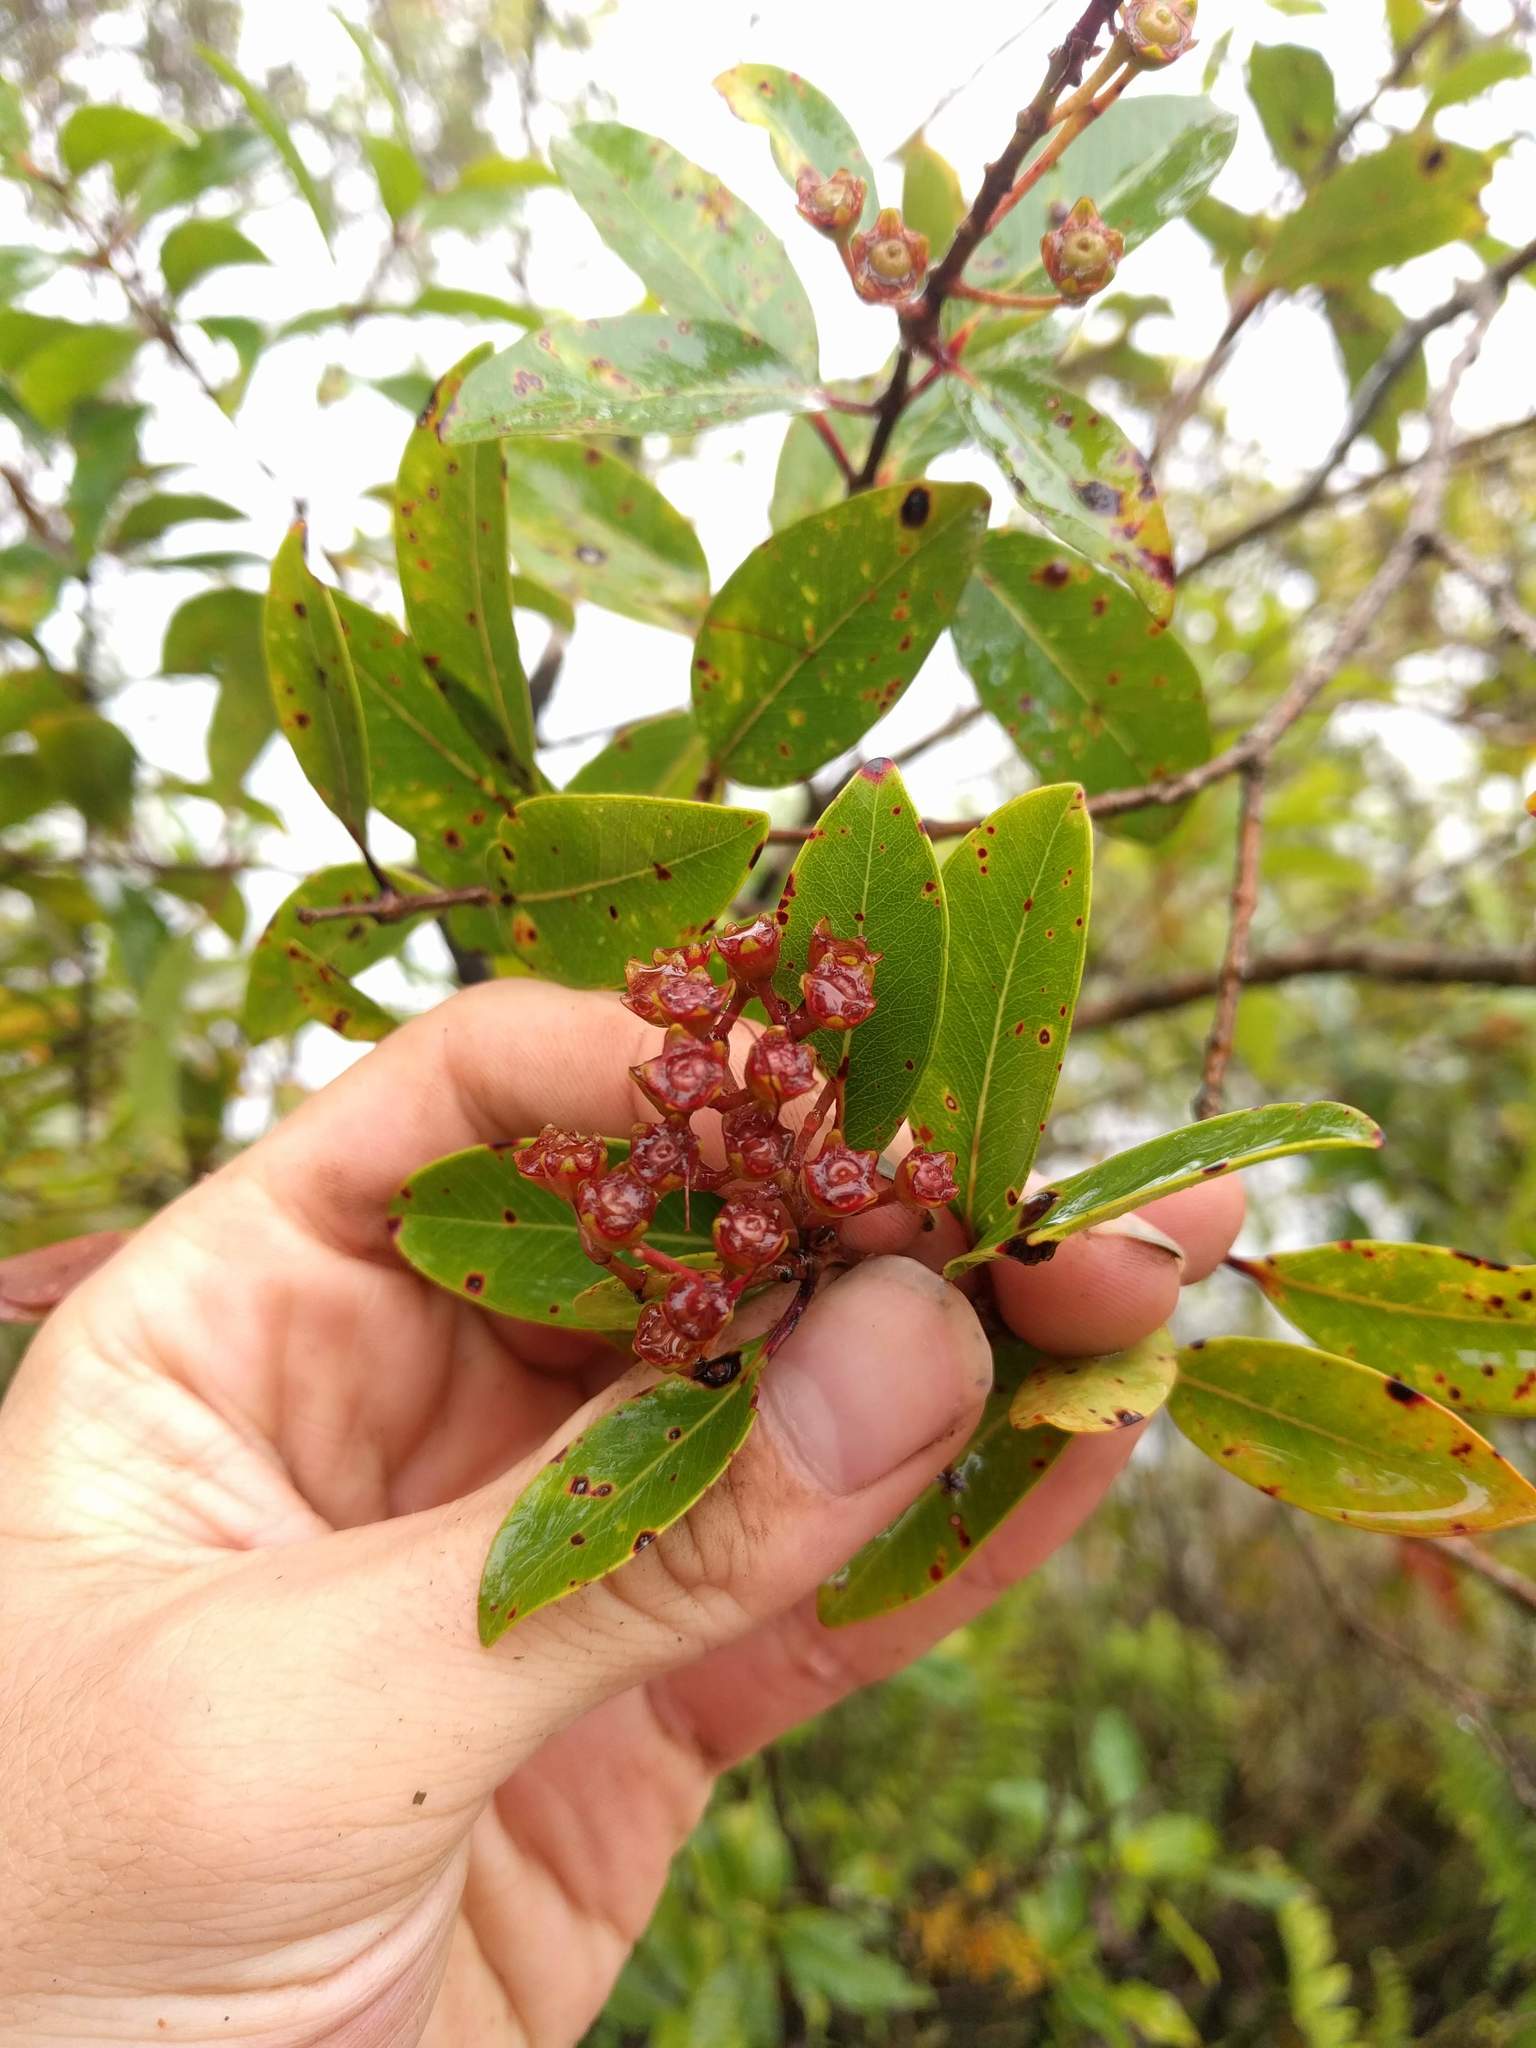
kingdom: Plantae
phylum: Tracheophyta
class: Magnoliopsida
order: Myrtales
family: Myrtaceae
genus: Metrosideros
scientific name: Metrosideros polymorpha
